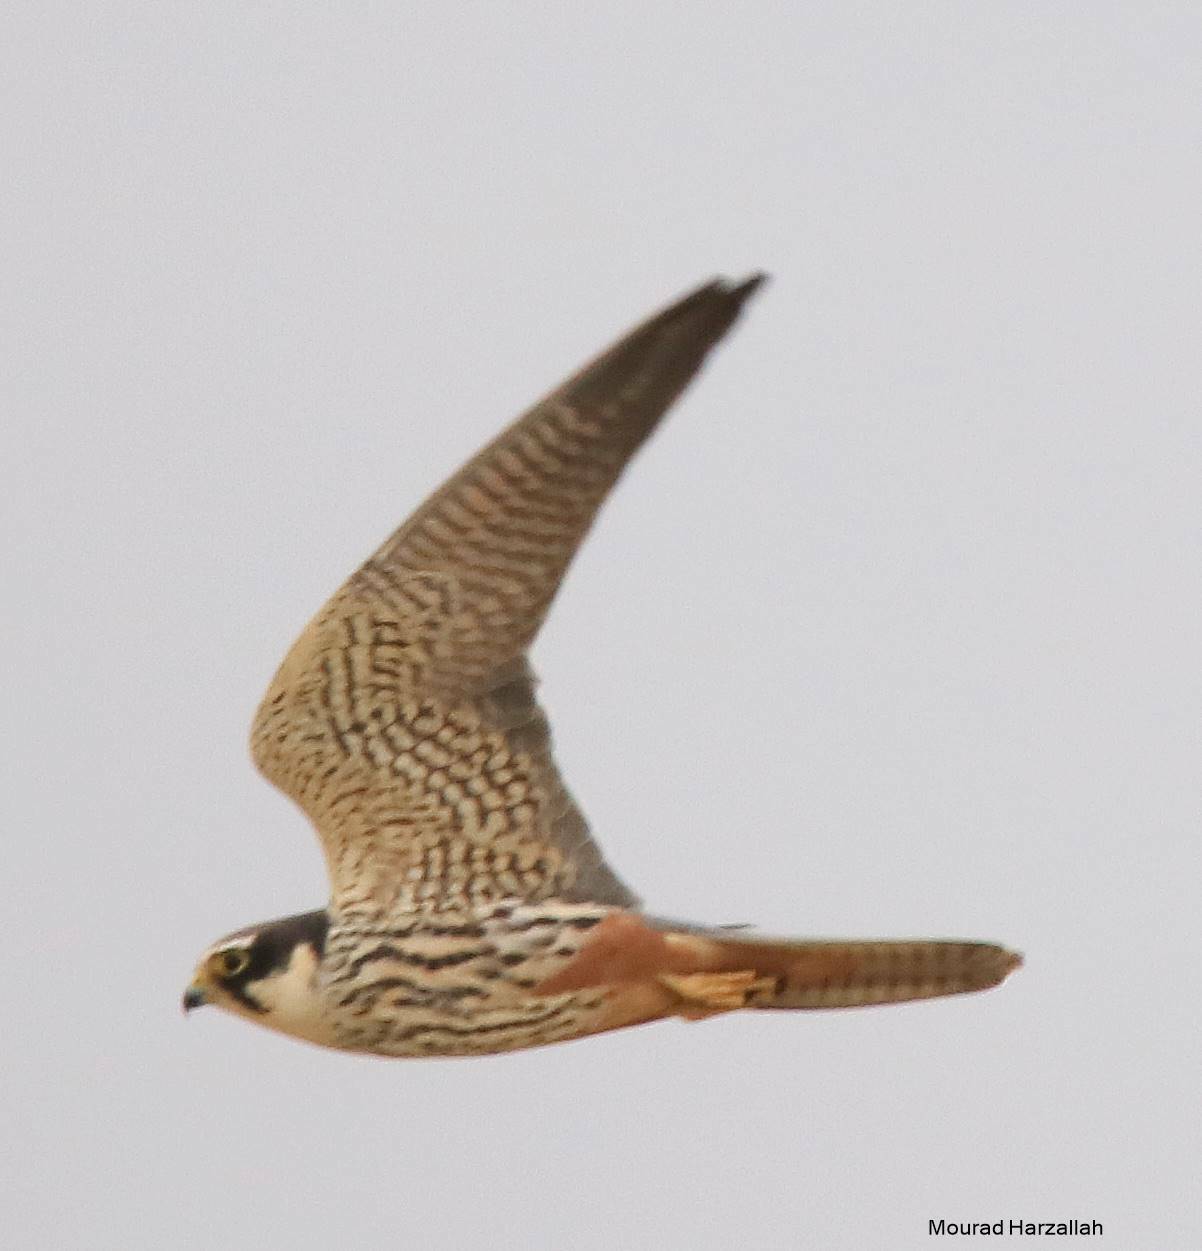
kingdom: Animalia
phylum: Chordata
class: Aves
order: Falconiformes
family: Falconidae
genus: Falco
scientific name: Falco subbuteo
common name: Eurasian hobby
